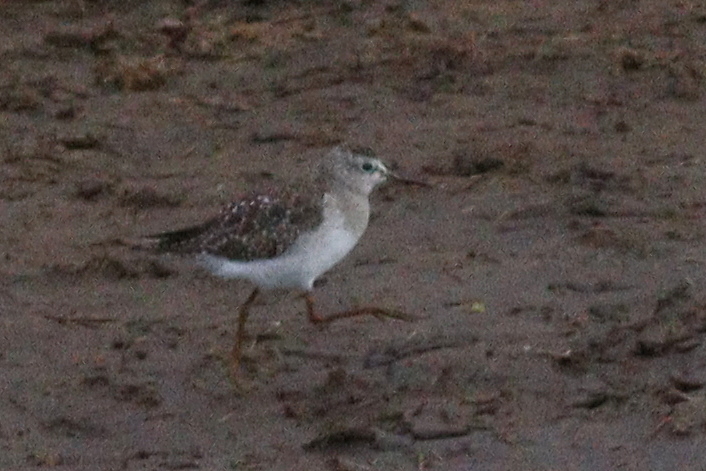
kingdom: Animalia
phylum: Chordata
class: Aves
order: Charadriiformes
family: Scolopacidae
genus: Tringa
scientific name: Tringa glareola
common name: Wood sandpiper
